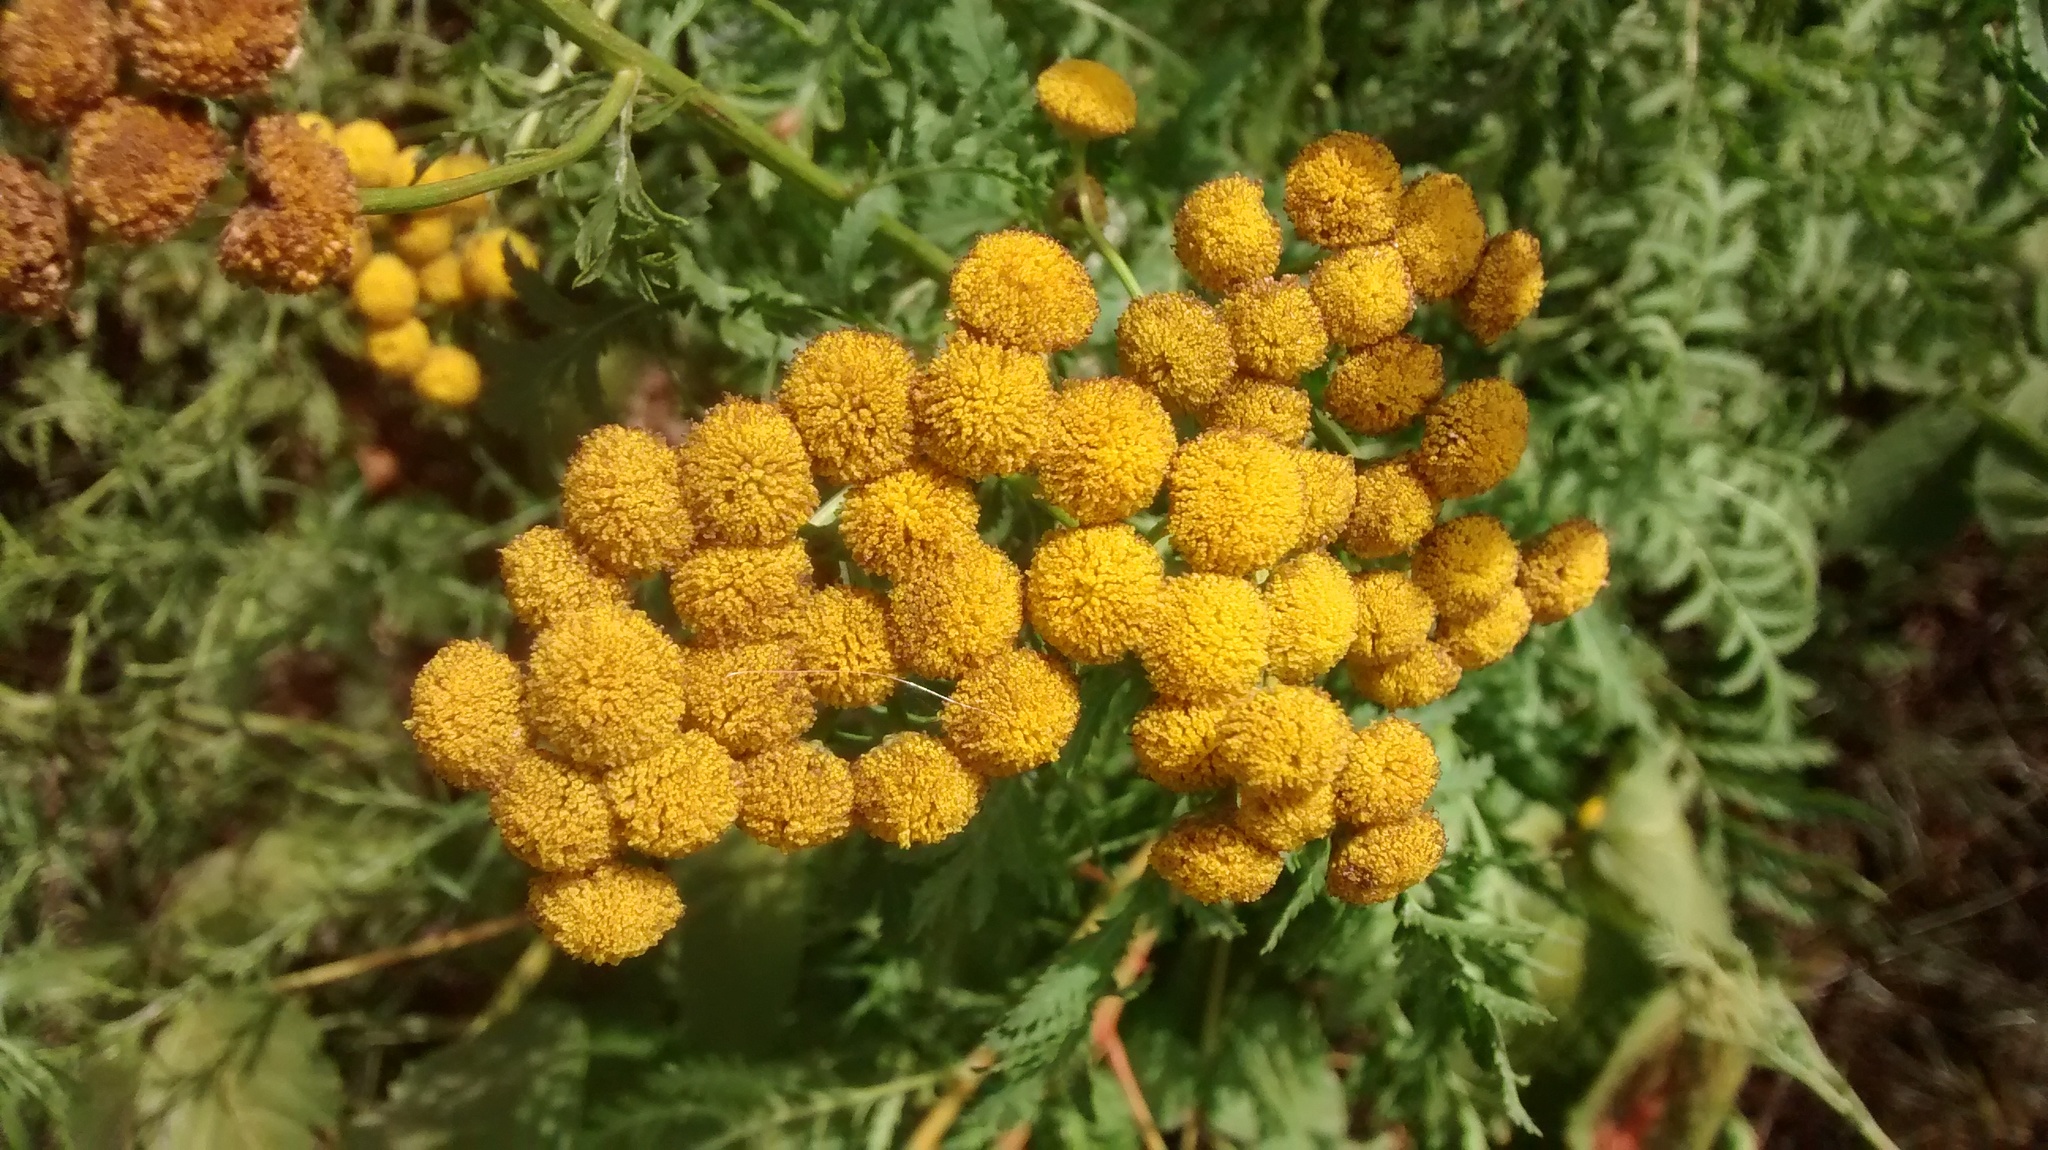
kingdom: Plantae
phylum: Tracheophyta
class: Magnoliopsida
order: Asterales
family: Asteraceae
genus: Tanacetum
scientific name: Tanacetum vulgare
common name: Common tansy
